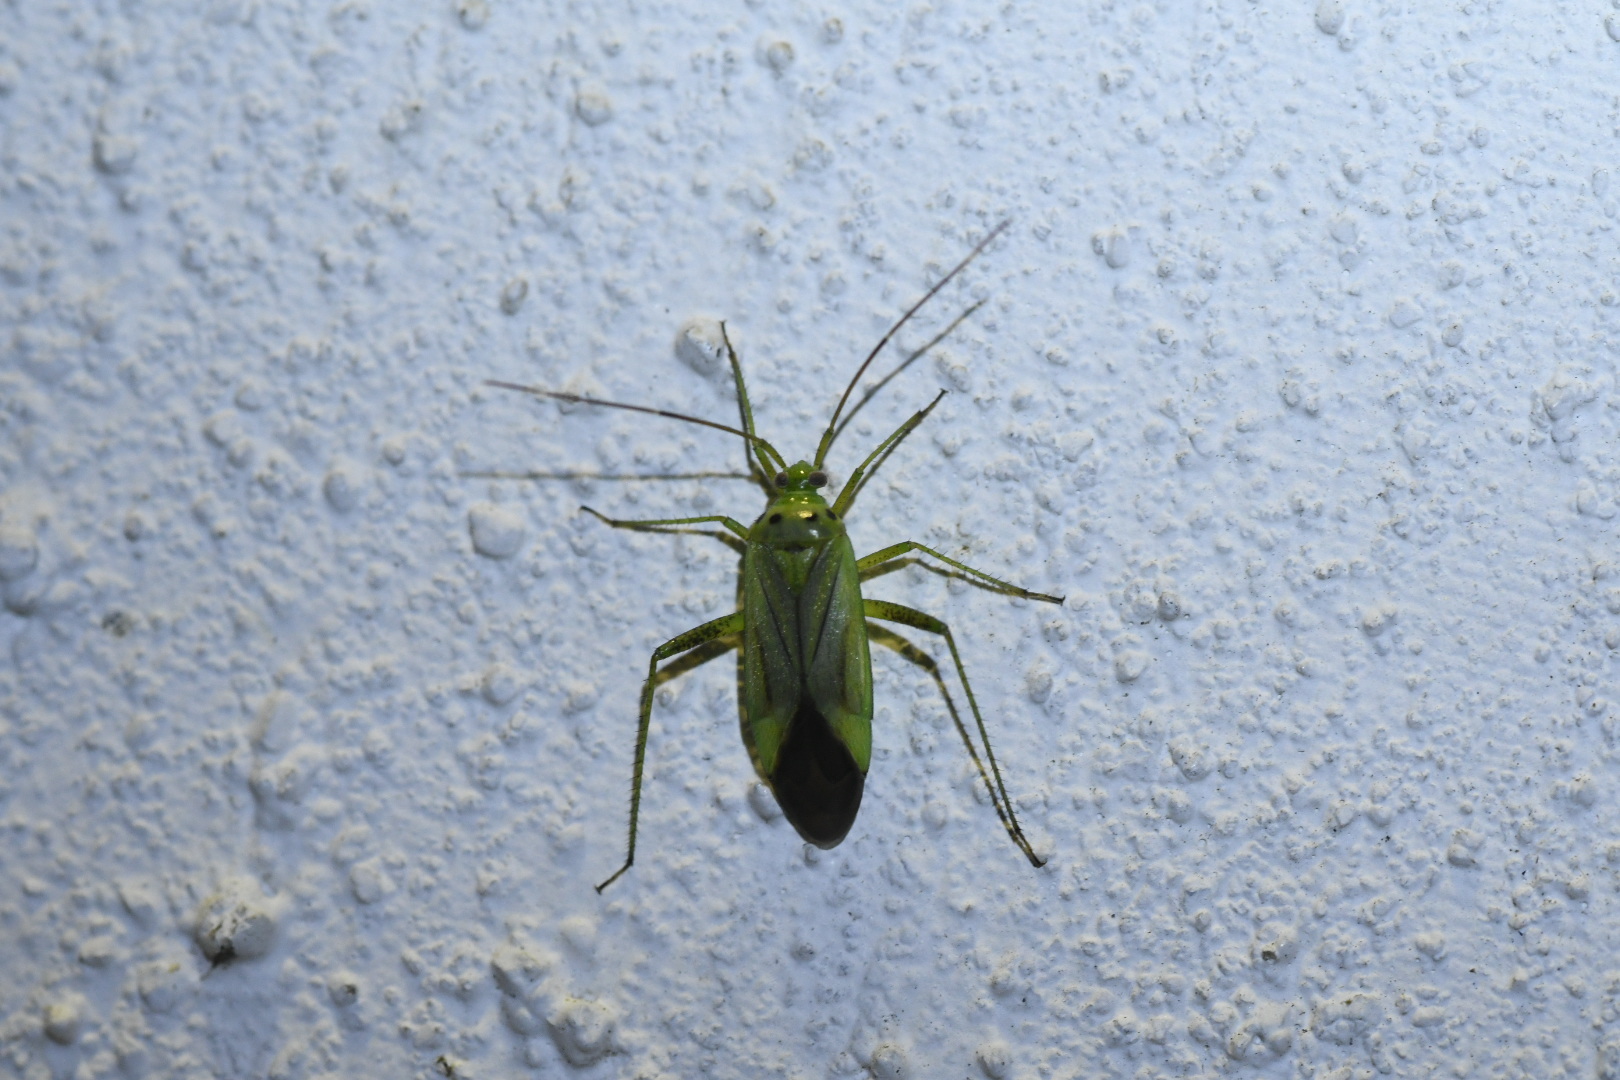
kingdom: Animalia
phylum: Arthropoda
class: Insecta
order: Hemiptera
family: Miridae
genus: Adelphocoris
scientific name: Adelphocoris quadripunctatus
